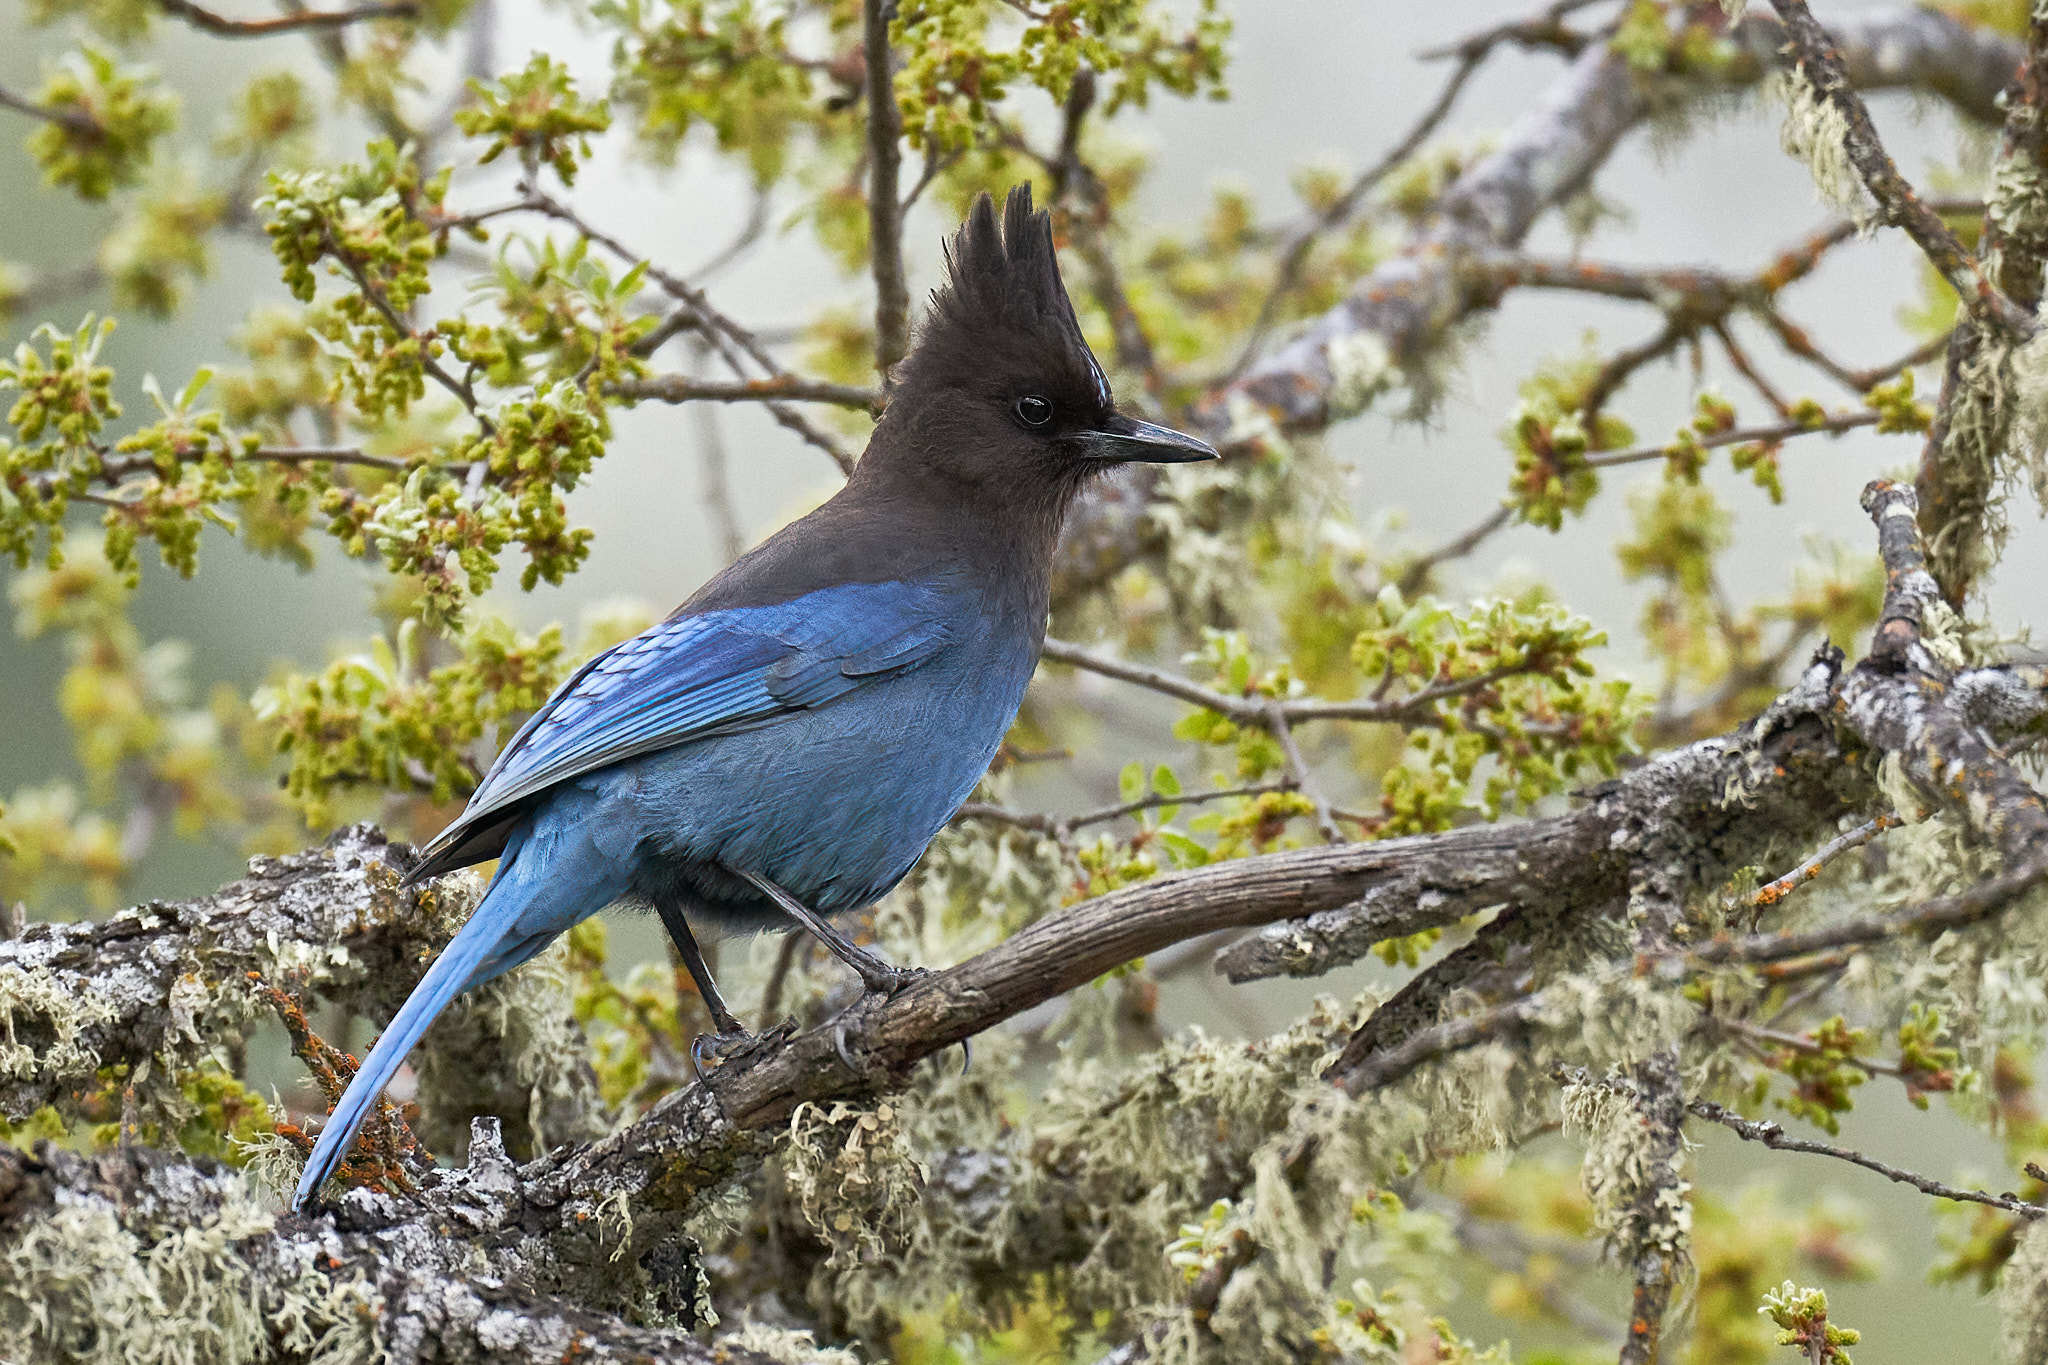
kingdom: Animalia
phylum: Chordata
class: Aves
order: Passeriformes
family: Corvidae
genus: Cyanocitta
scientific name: Cyanocitta stelleri
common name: Steller's jay
